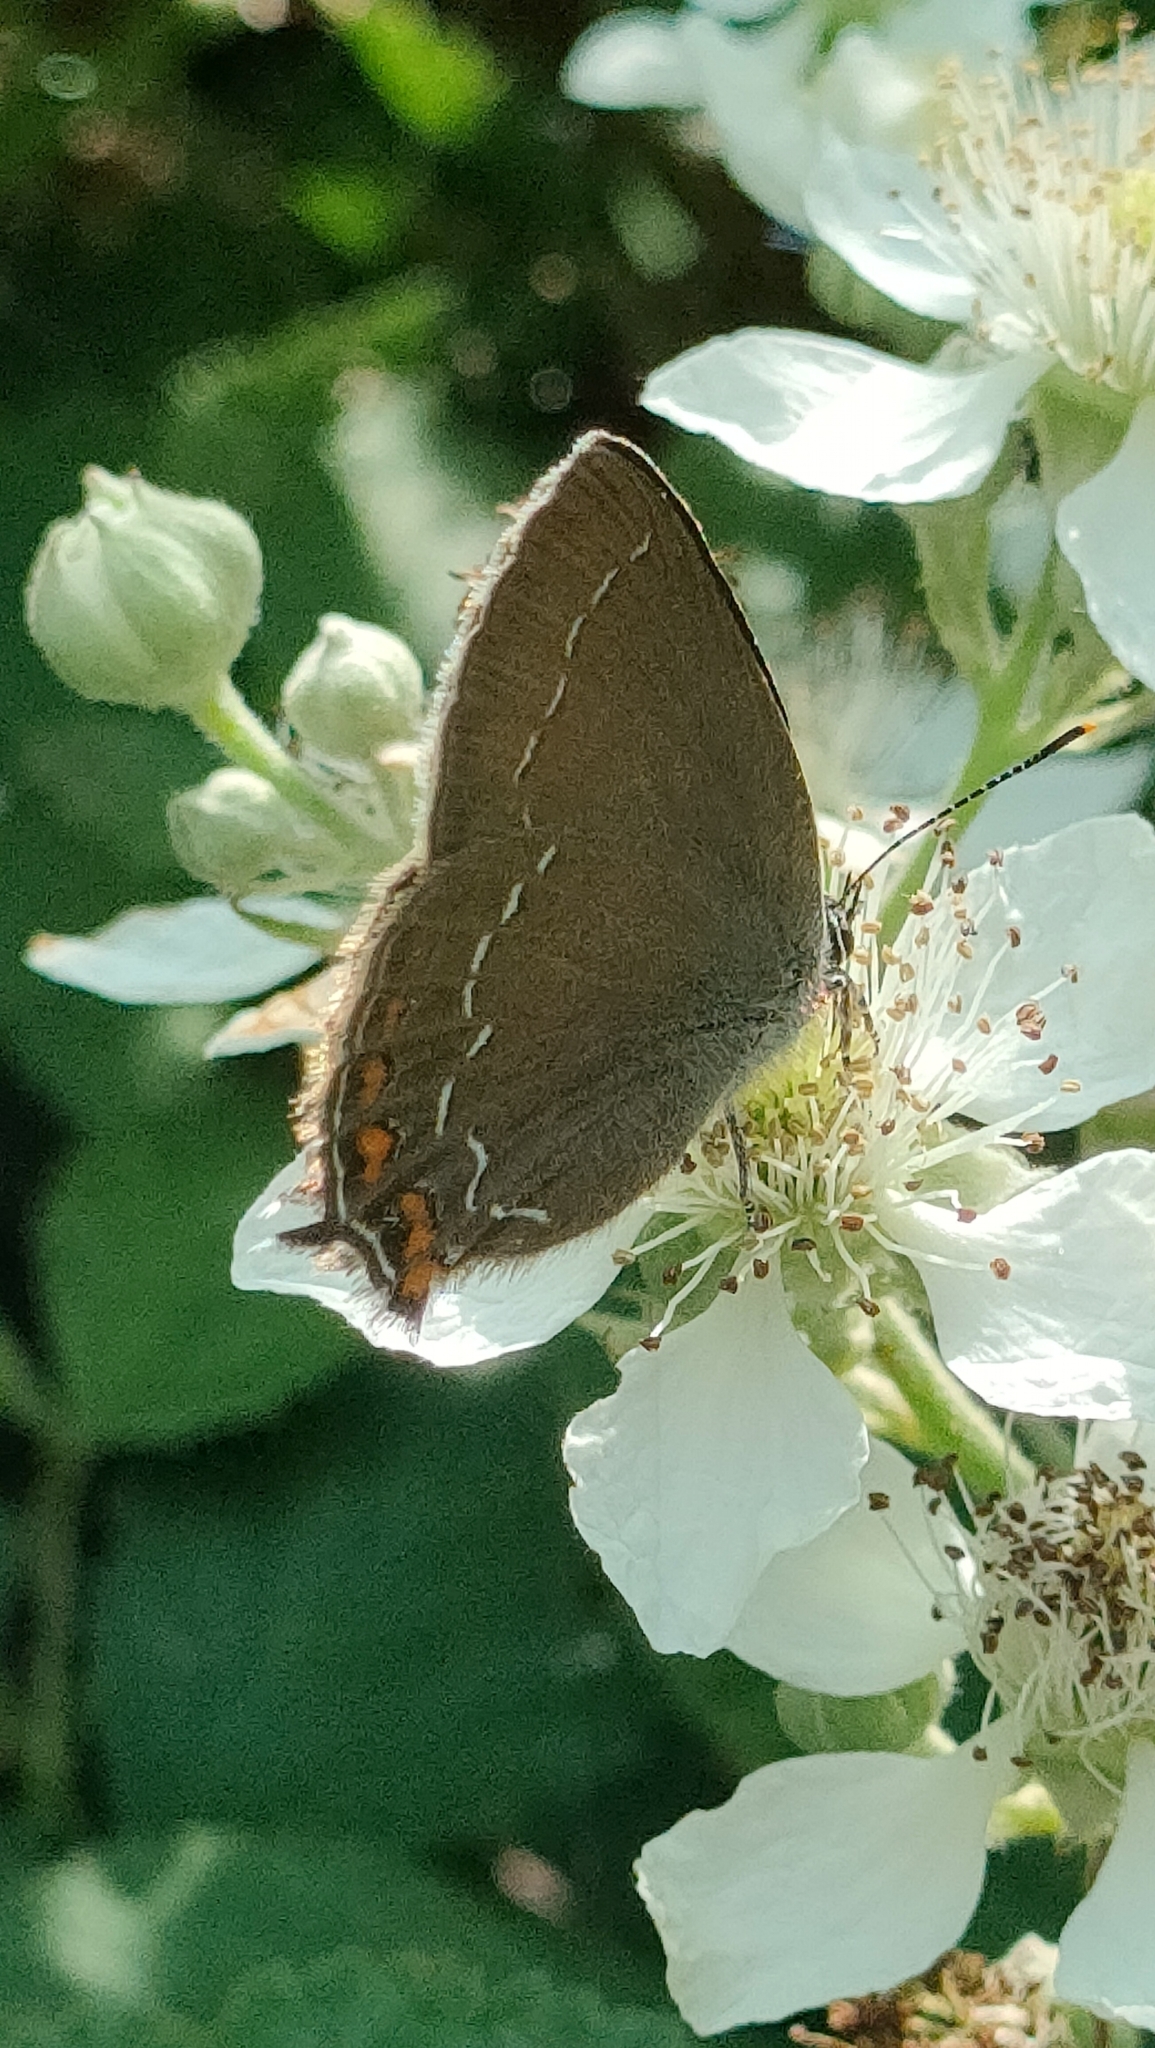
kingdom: Animalia
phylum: Arthropoda
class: Insecta
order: Lepidoptera
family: Lycaenidae
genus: Nordmannia
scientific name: Nordmannia ilicis
